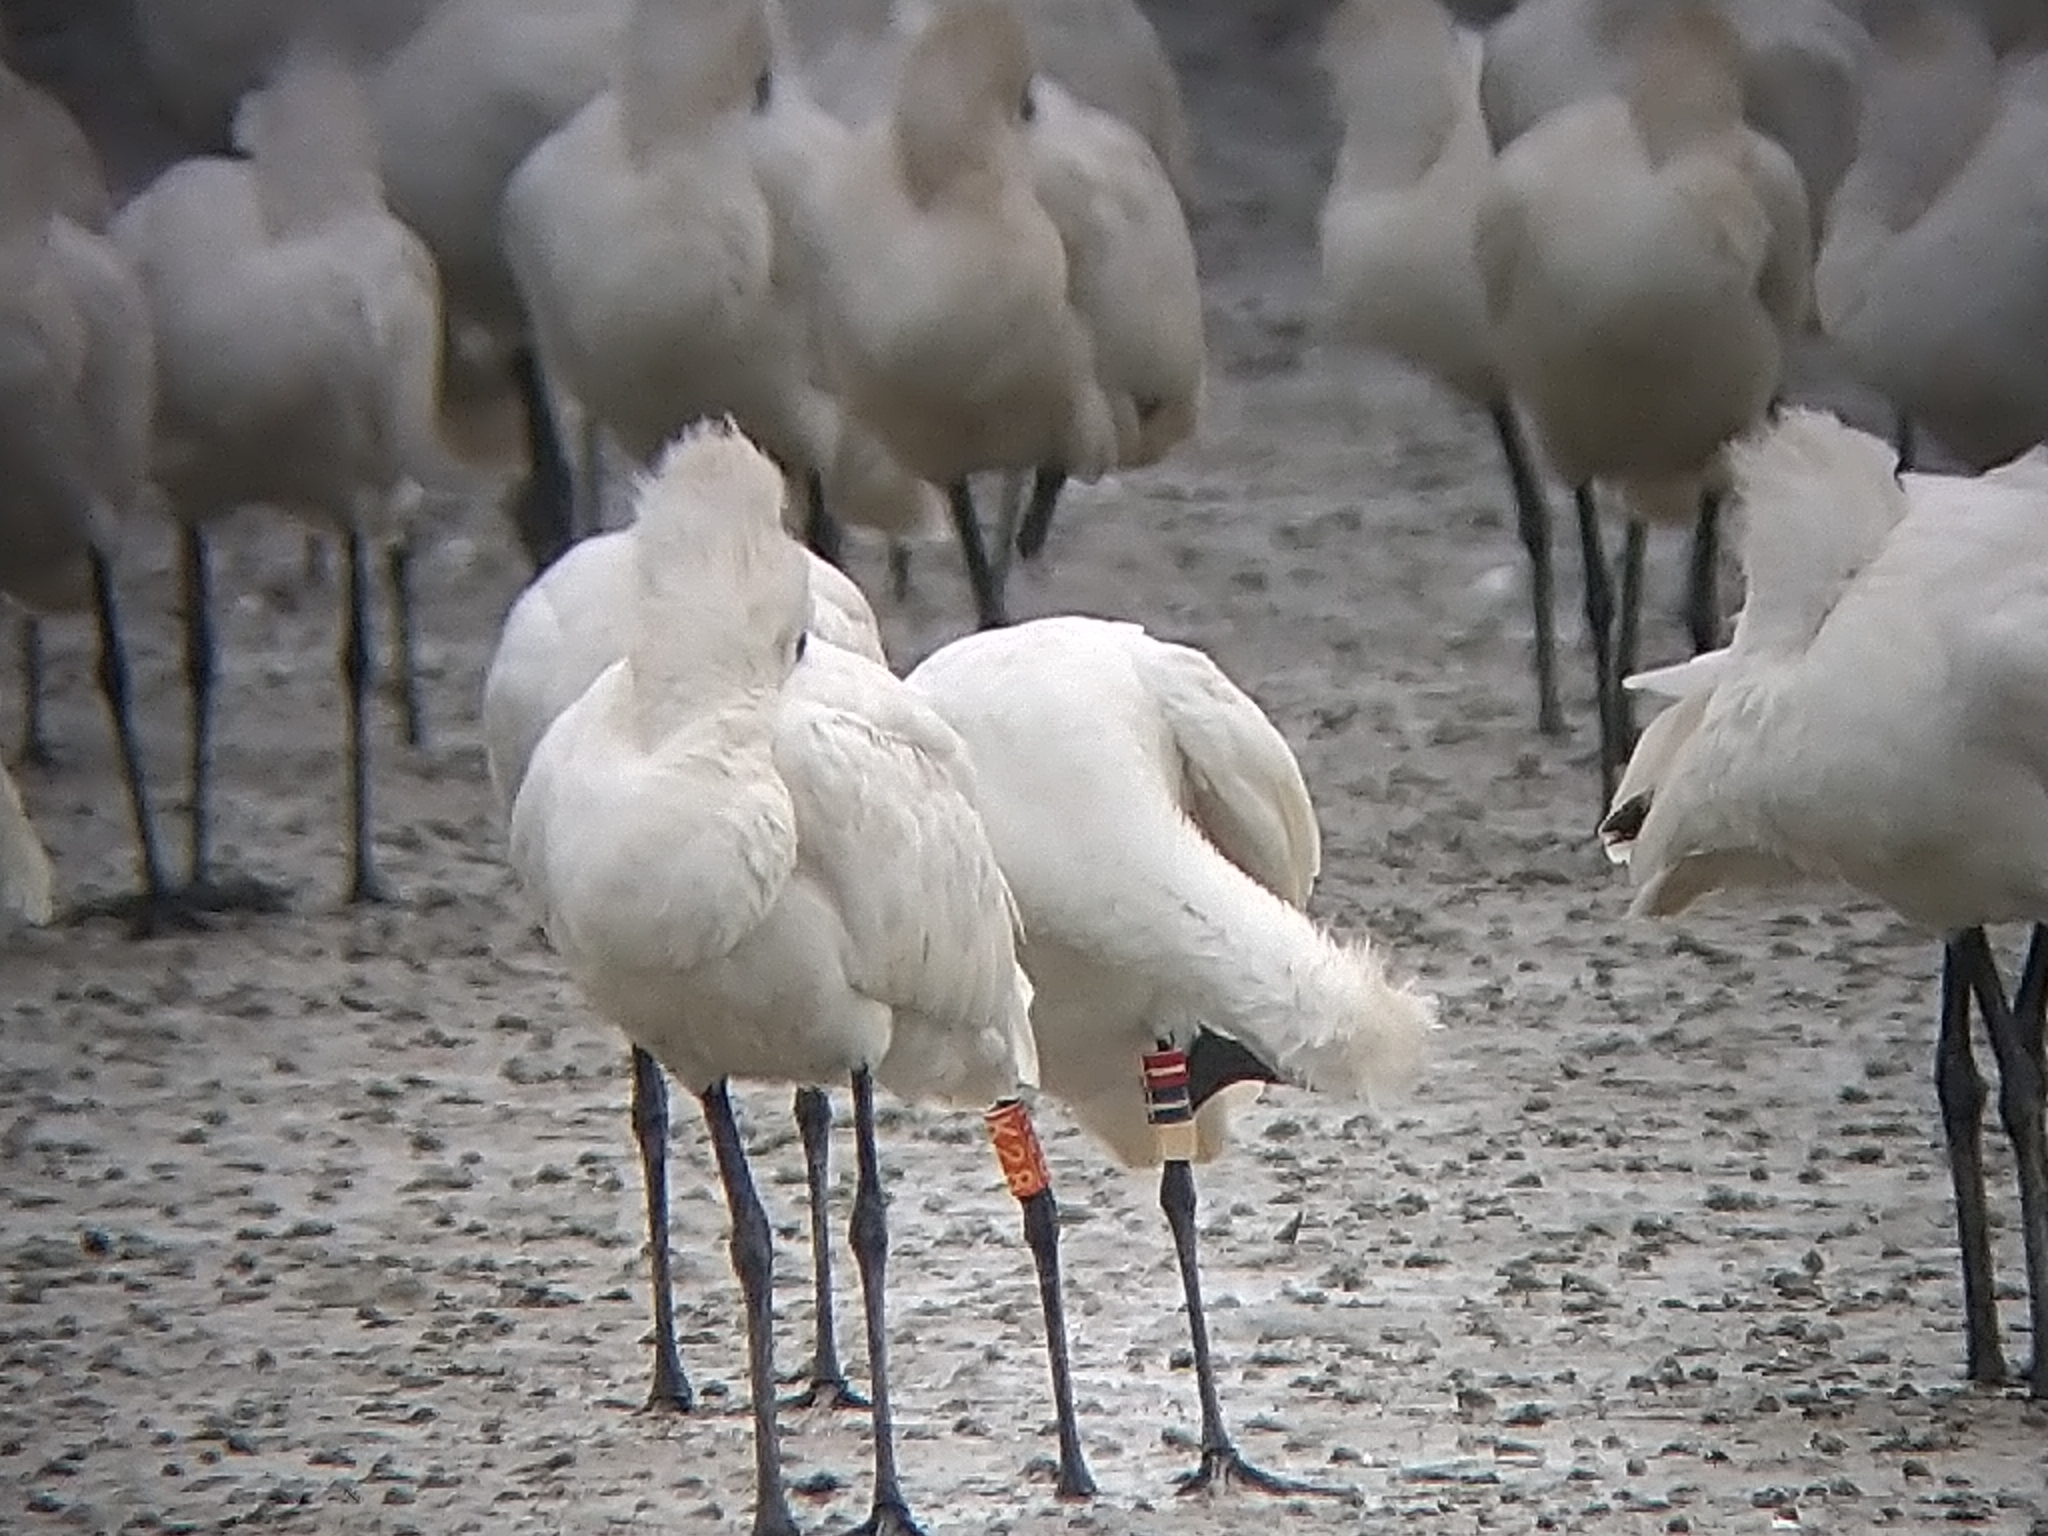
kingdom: Animalia
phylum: Chordata
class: Aves
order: Pelecaniformes
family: Threskiornithidae
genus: Platalea
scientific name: Platalea minor
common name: Black-faced spoonbill
